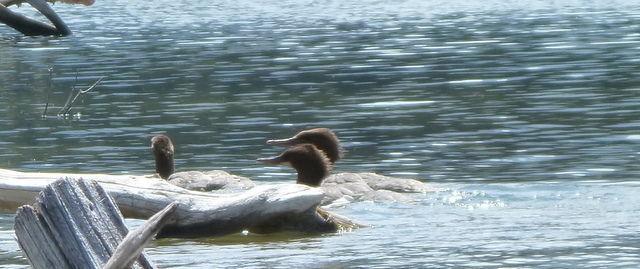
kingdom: Animalia
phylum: Chordata
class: Aves
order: Anseriformes
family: Anatidae
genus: Mergus
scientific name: Mergus merganser
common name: Common merganser
